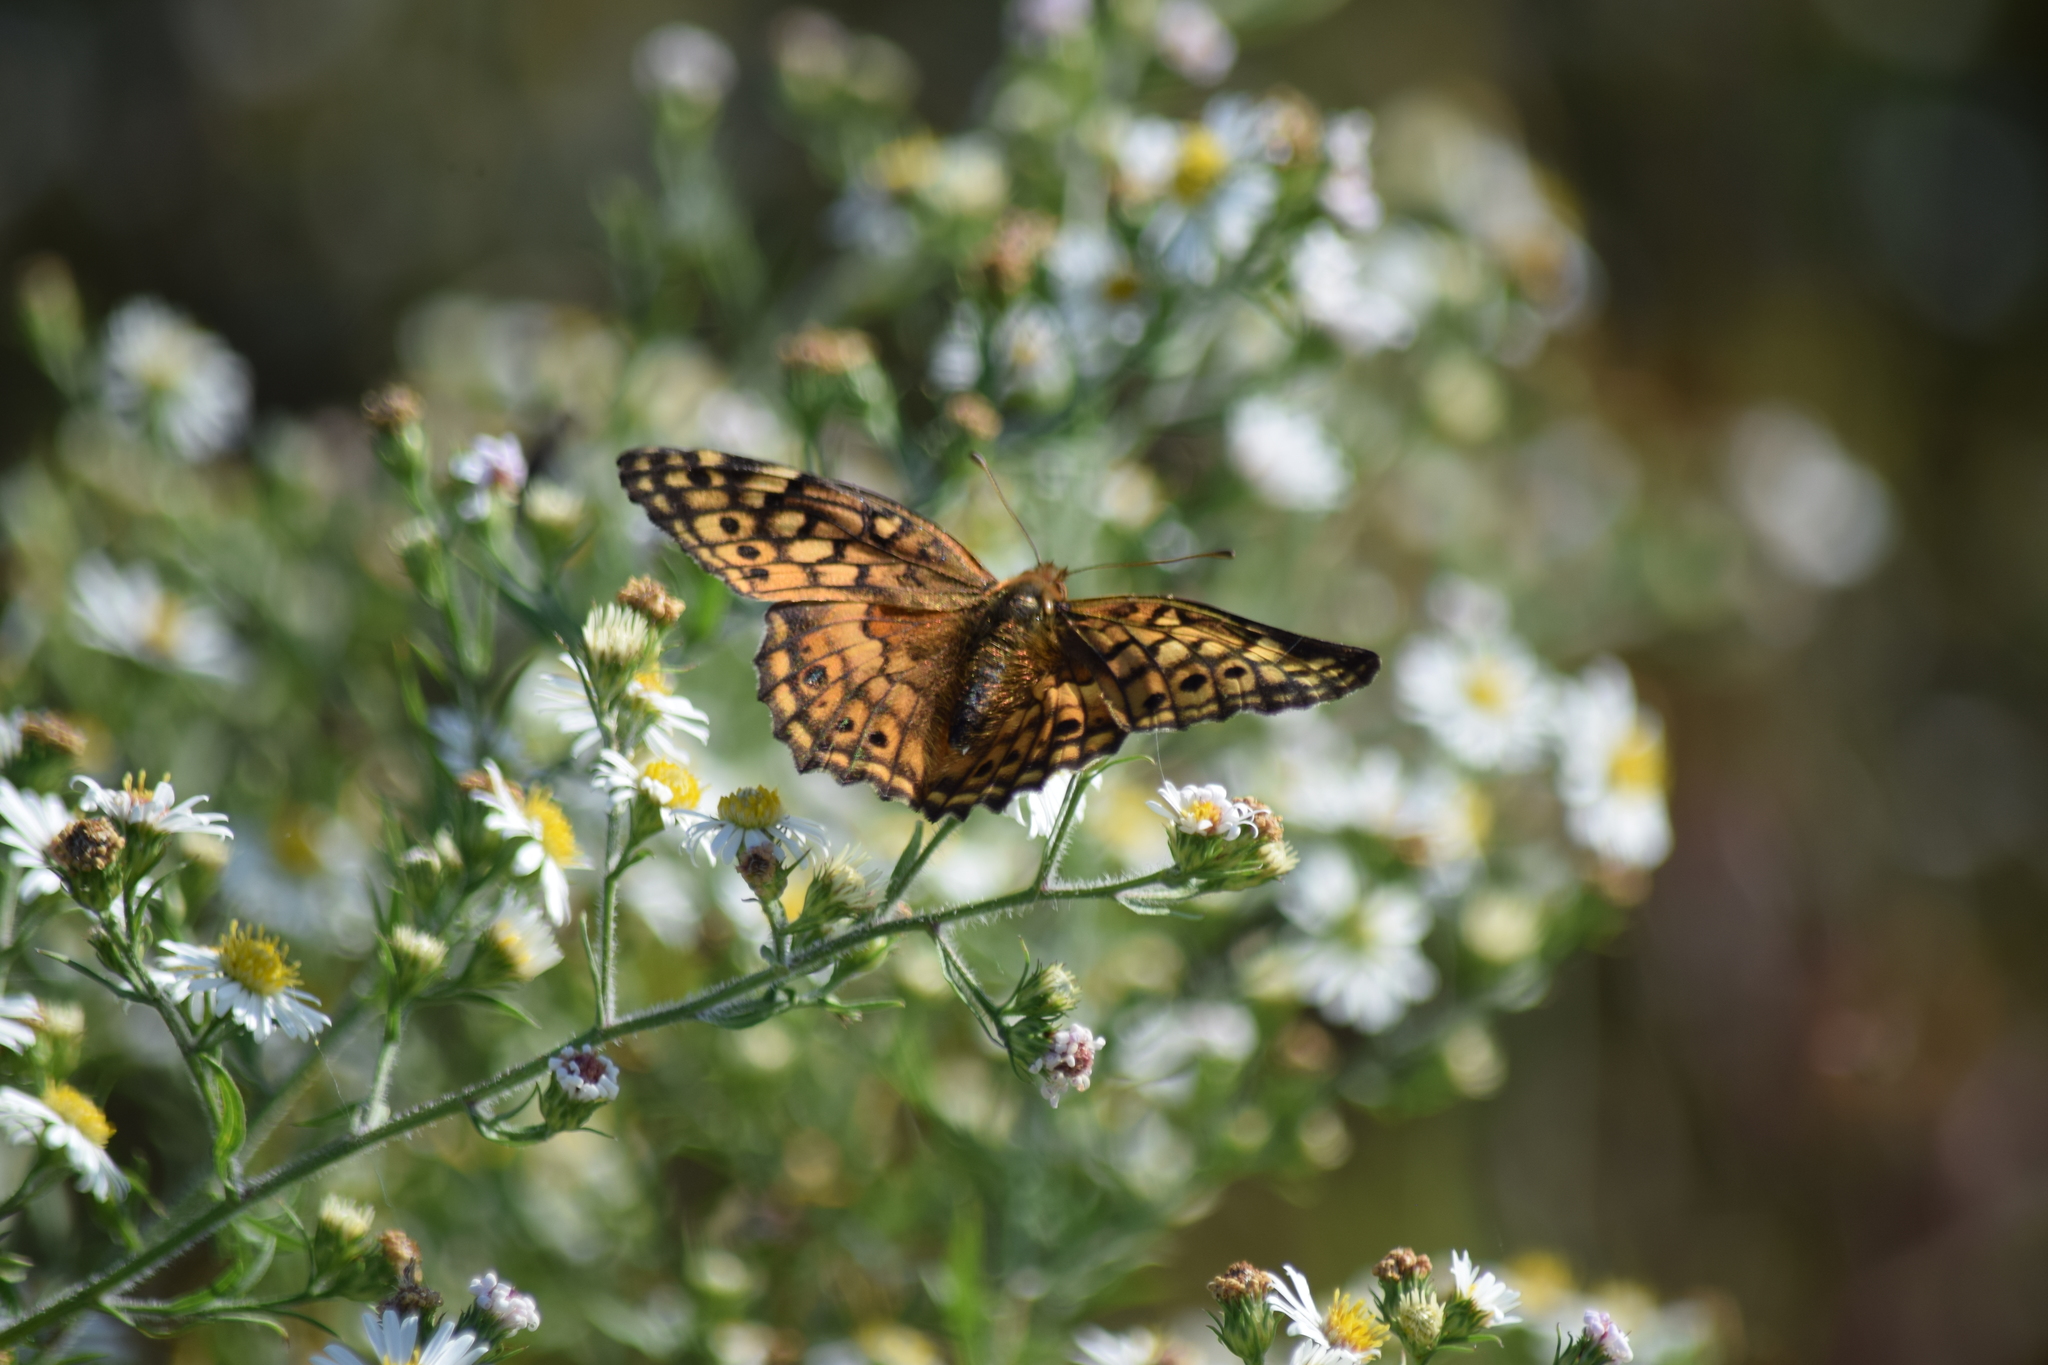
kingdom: Animalia
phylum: Arthropoda
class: Insecta
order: Lepidoptera
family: Nymphalidae
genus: Euptoieta
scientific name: Euptoieta claudia
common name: Variegated fritillary
